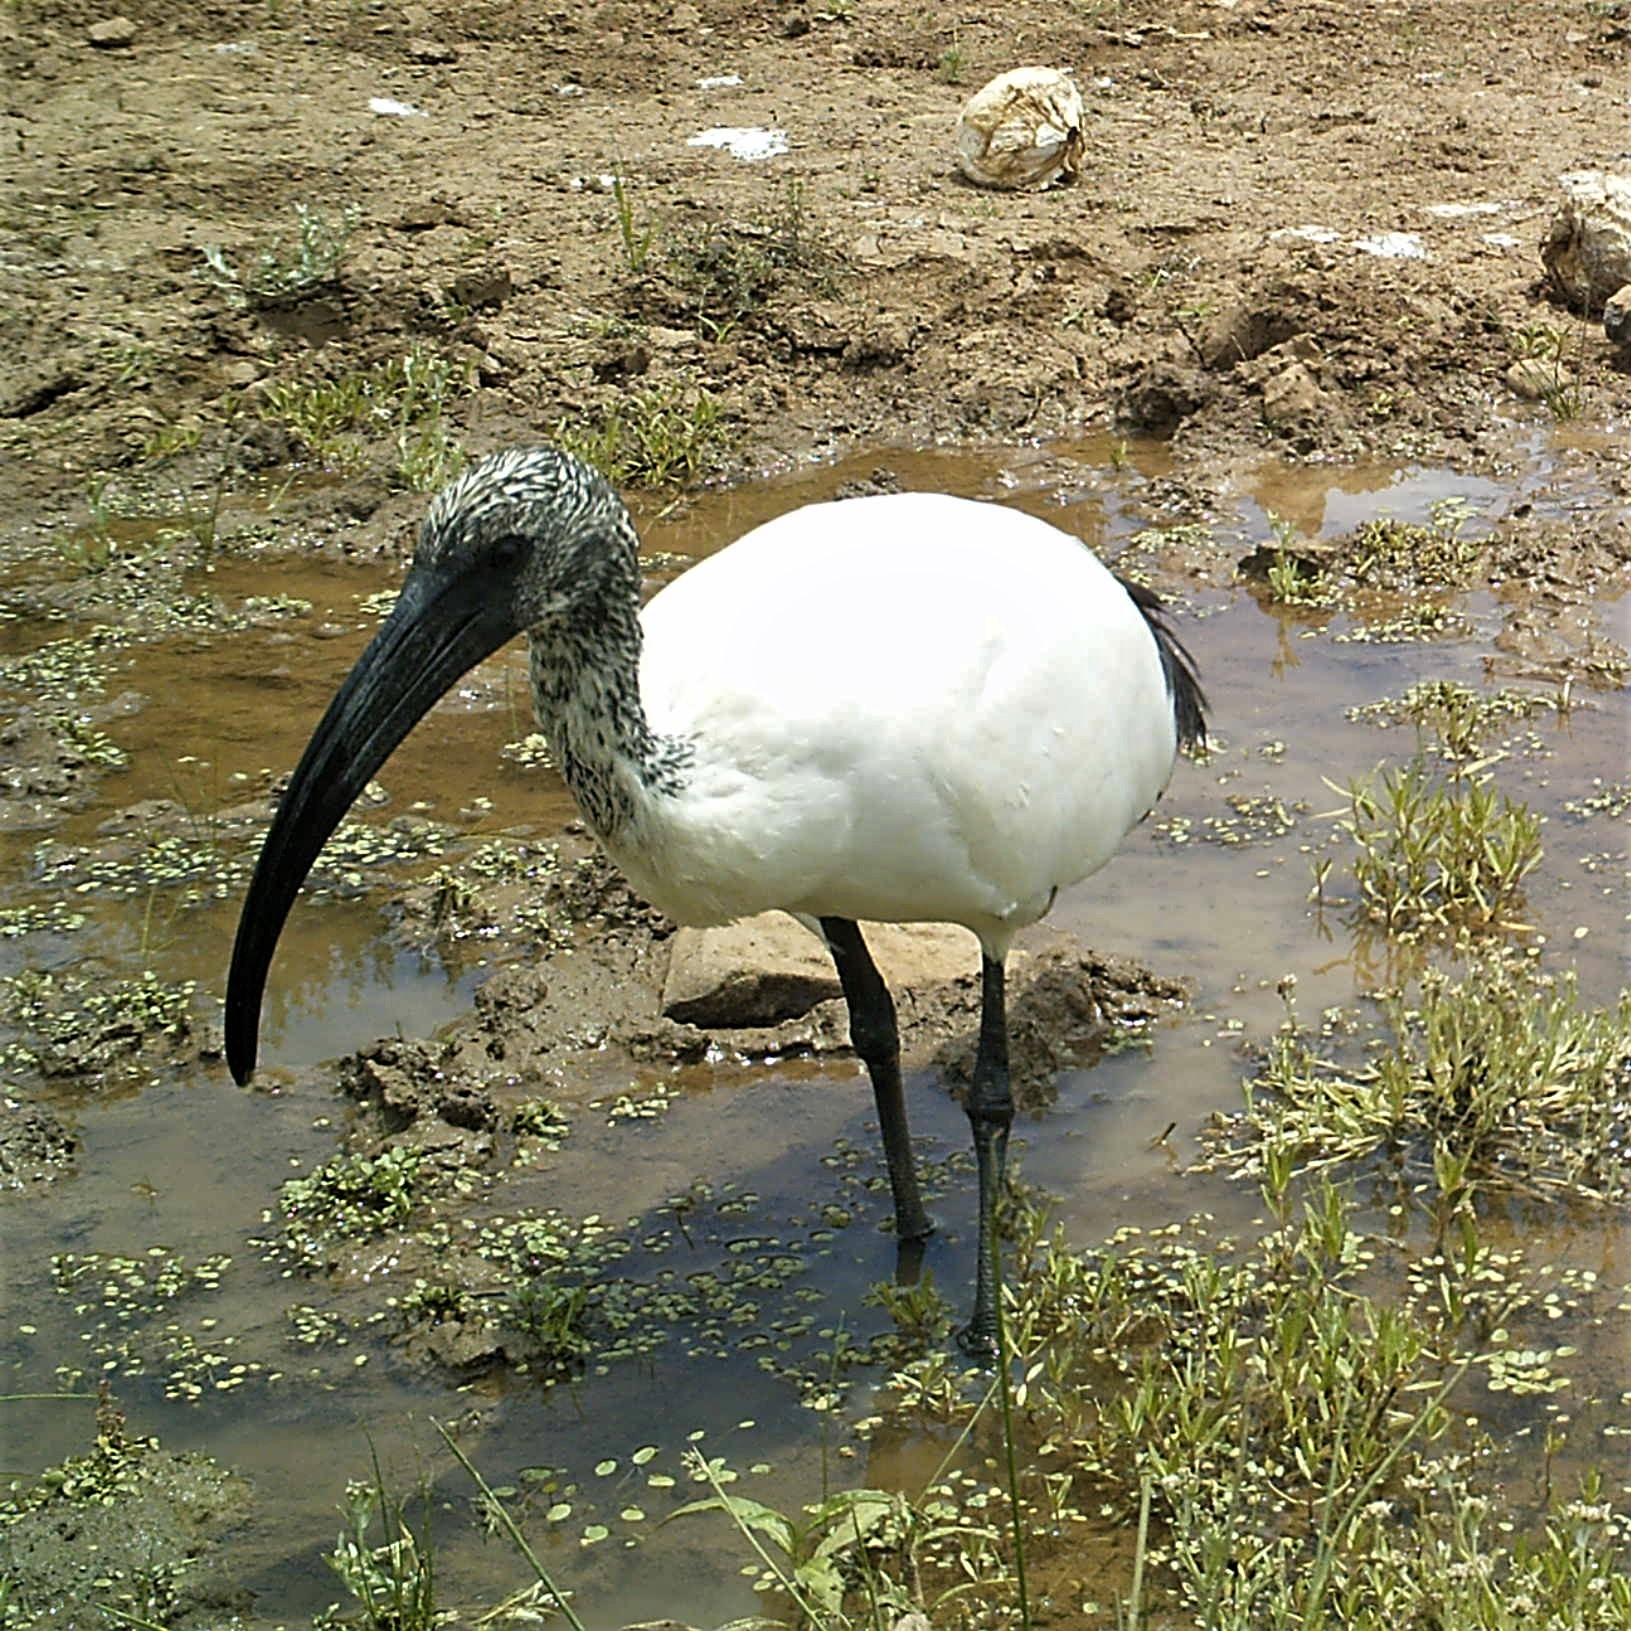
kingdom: Animalia
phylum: Chordata
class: Aves
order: Pelecaniformes
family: Threskiornithidae
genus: Threskiornis
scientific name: Threskiornis aethiopicus
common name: Sacred ibis
